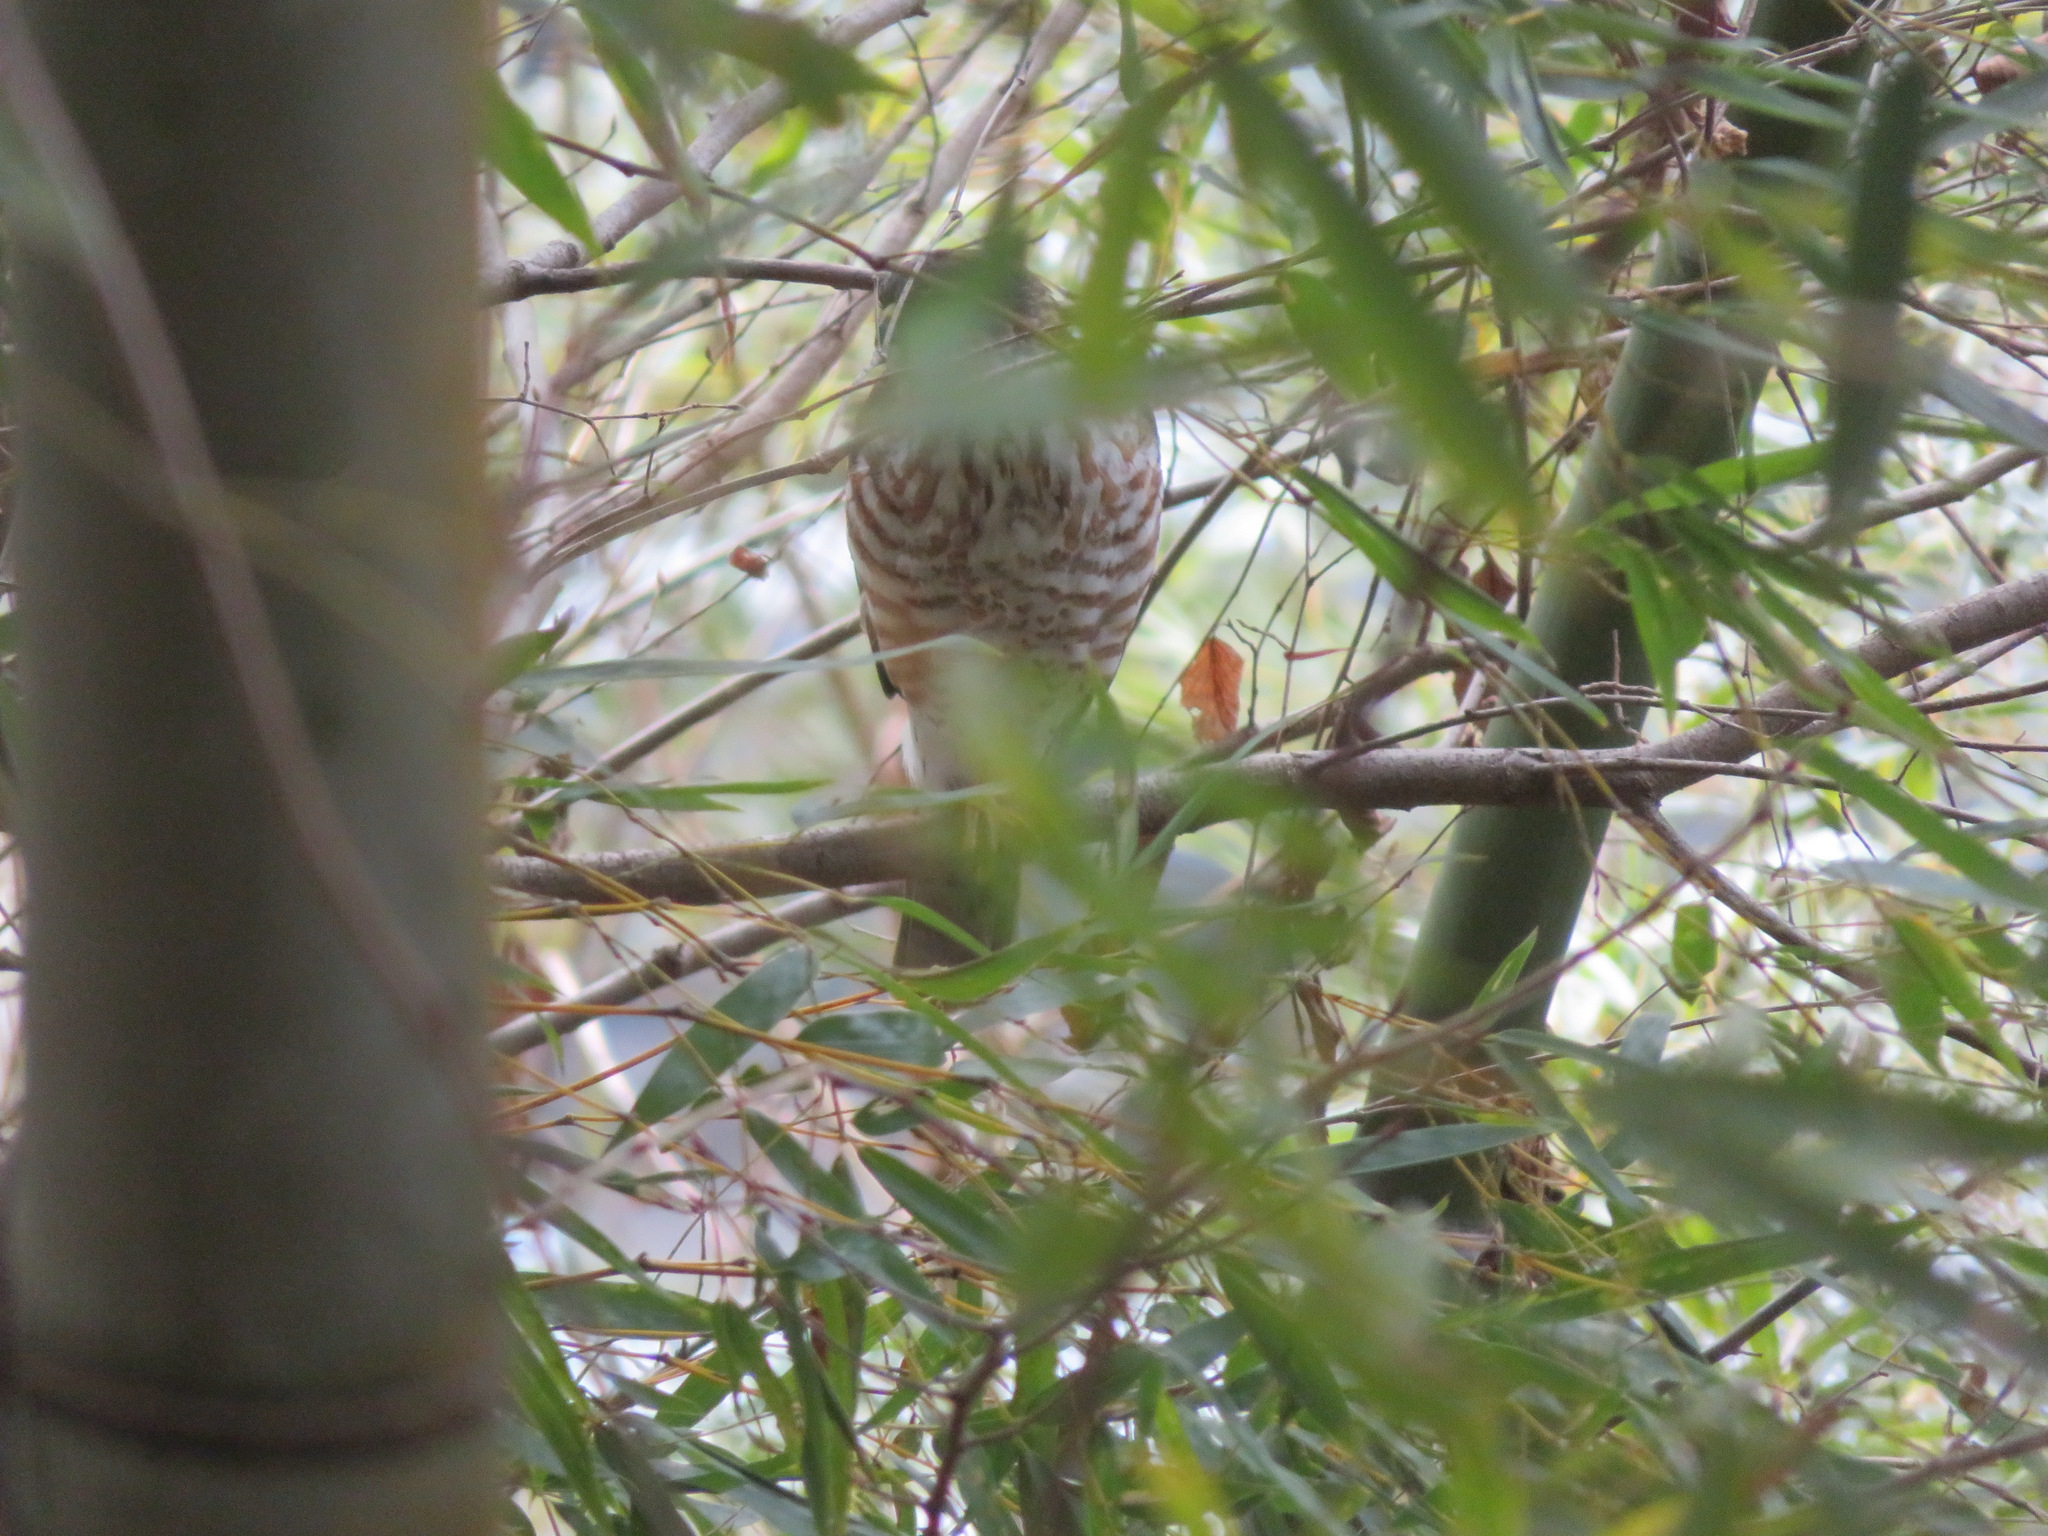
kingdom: Animalia
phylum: Chordata
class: Aves
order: Accipitriformes
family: Accipitridae
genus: Accipiter
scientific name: Accipiter gularis
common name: Japanese sparrowhawk
